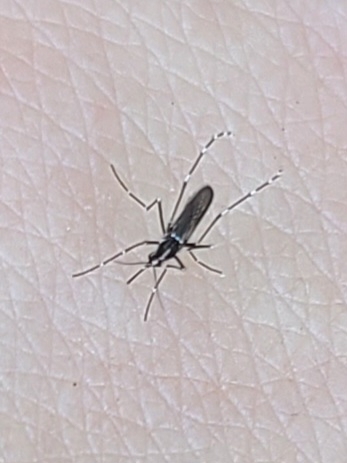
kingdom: Animalia
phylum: Arthropoda
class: Insecta
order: Diptera
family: Culicidae
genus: Aedes
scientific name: Aedes albopictus
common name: Tiger mosquito
